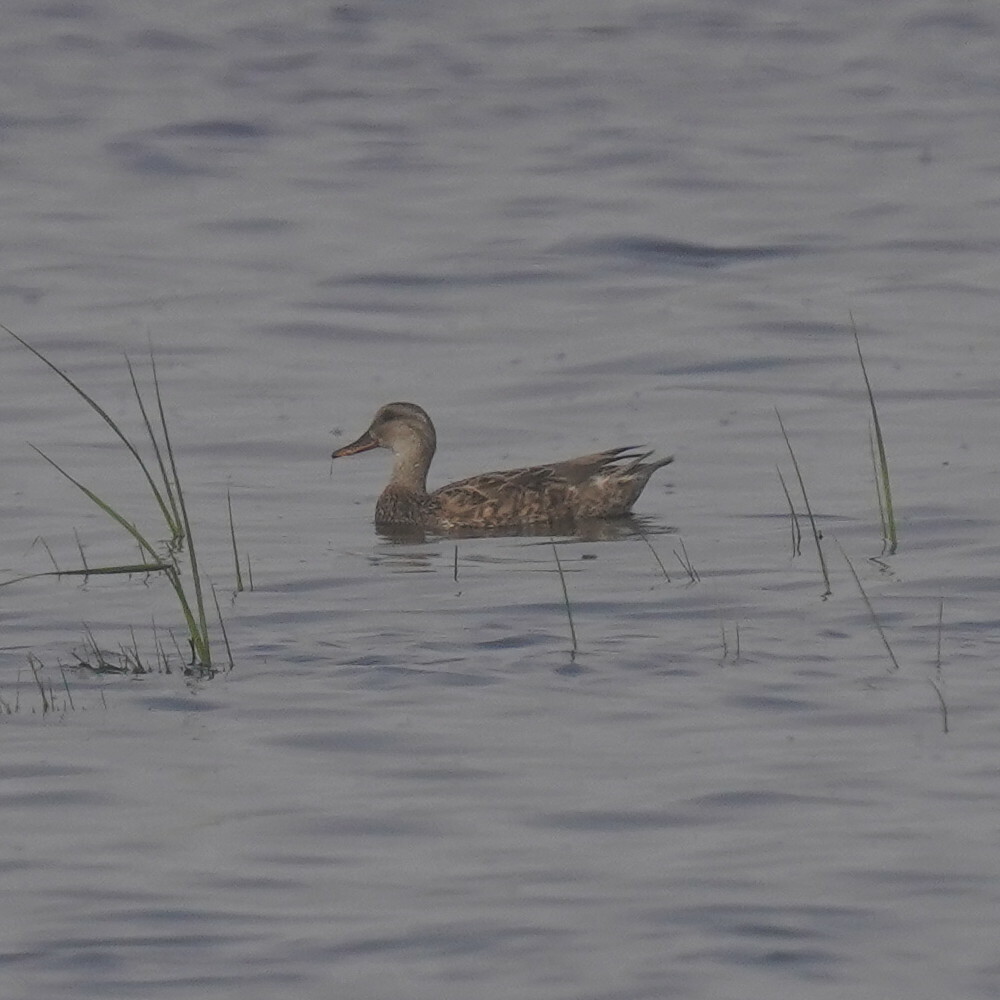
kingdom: Animalia
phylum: Chordata
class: Aves
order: Anseriformes
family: Anatidae
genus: Mareca
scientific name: Mareca strepera
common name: Gadwall
